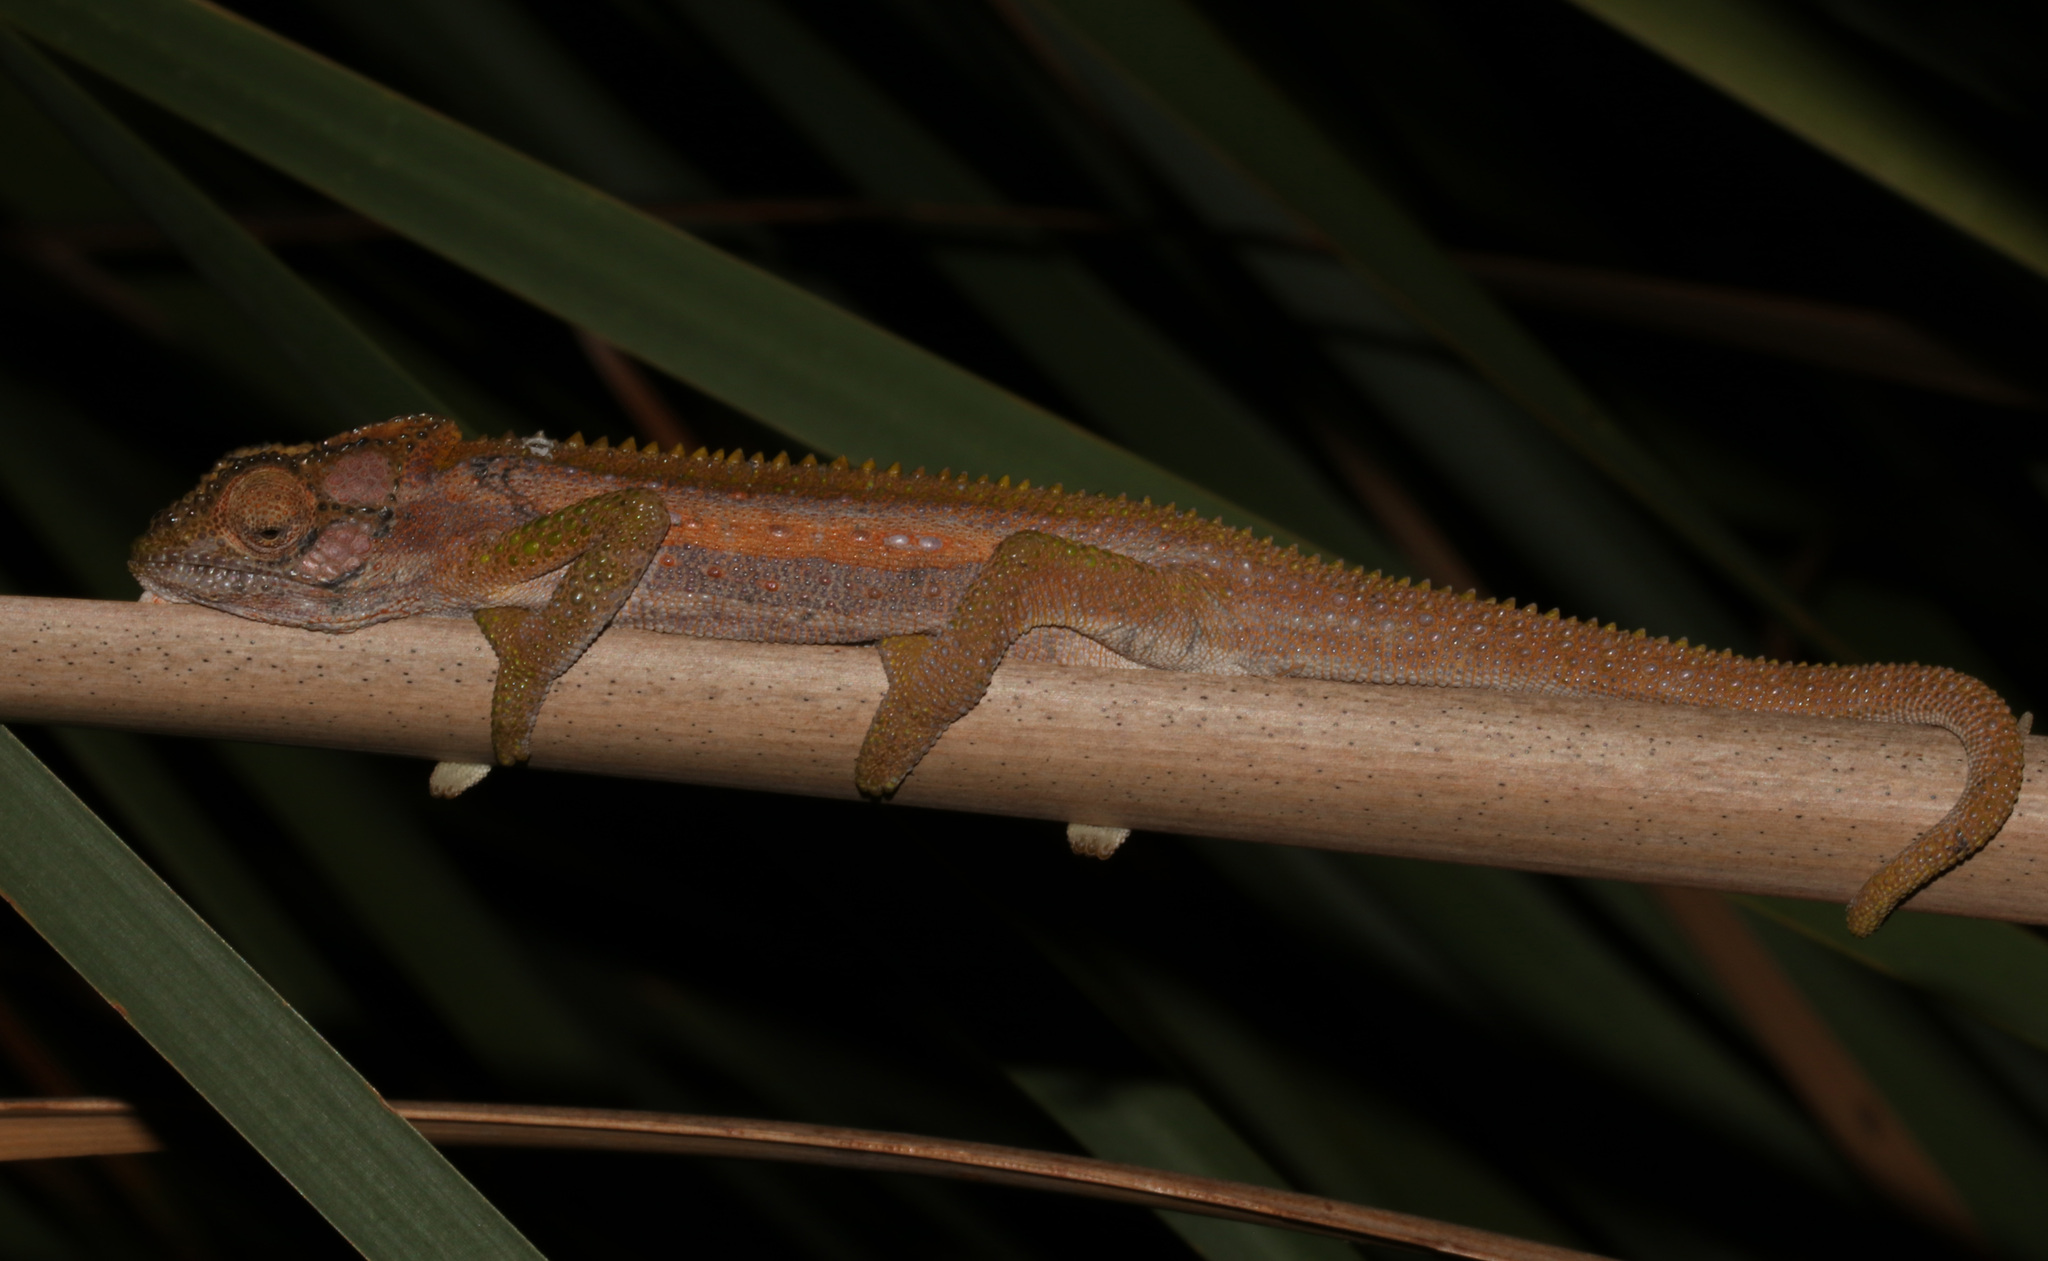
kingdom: Animalia
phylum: Chordata
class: Squamata
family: Chamaeleonidae
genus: Bradypodion
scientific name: Bradypodion pumilum
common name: Cape dwarf chameleon
